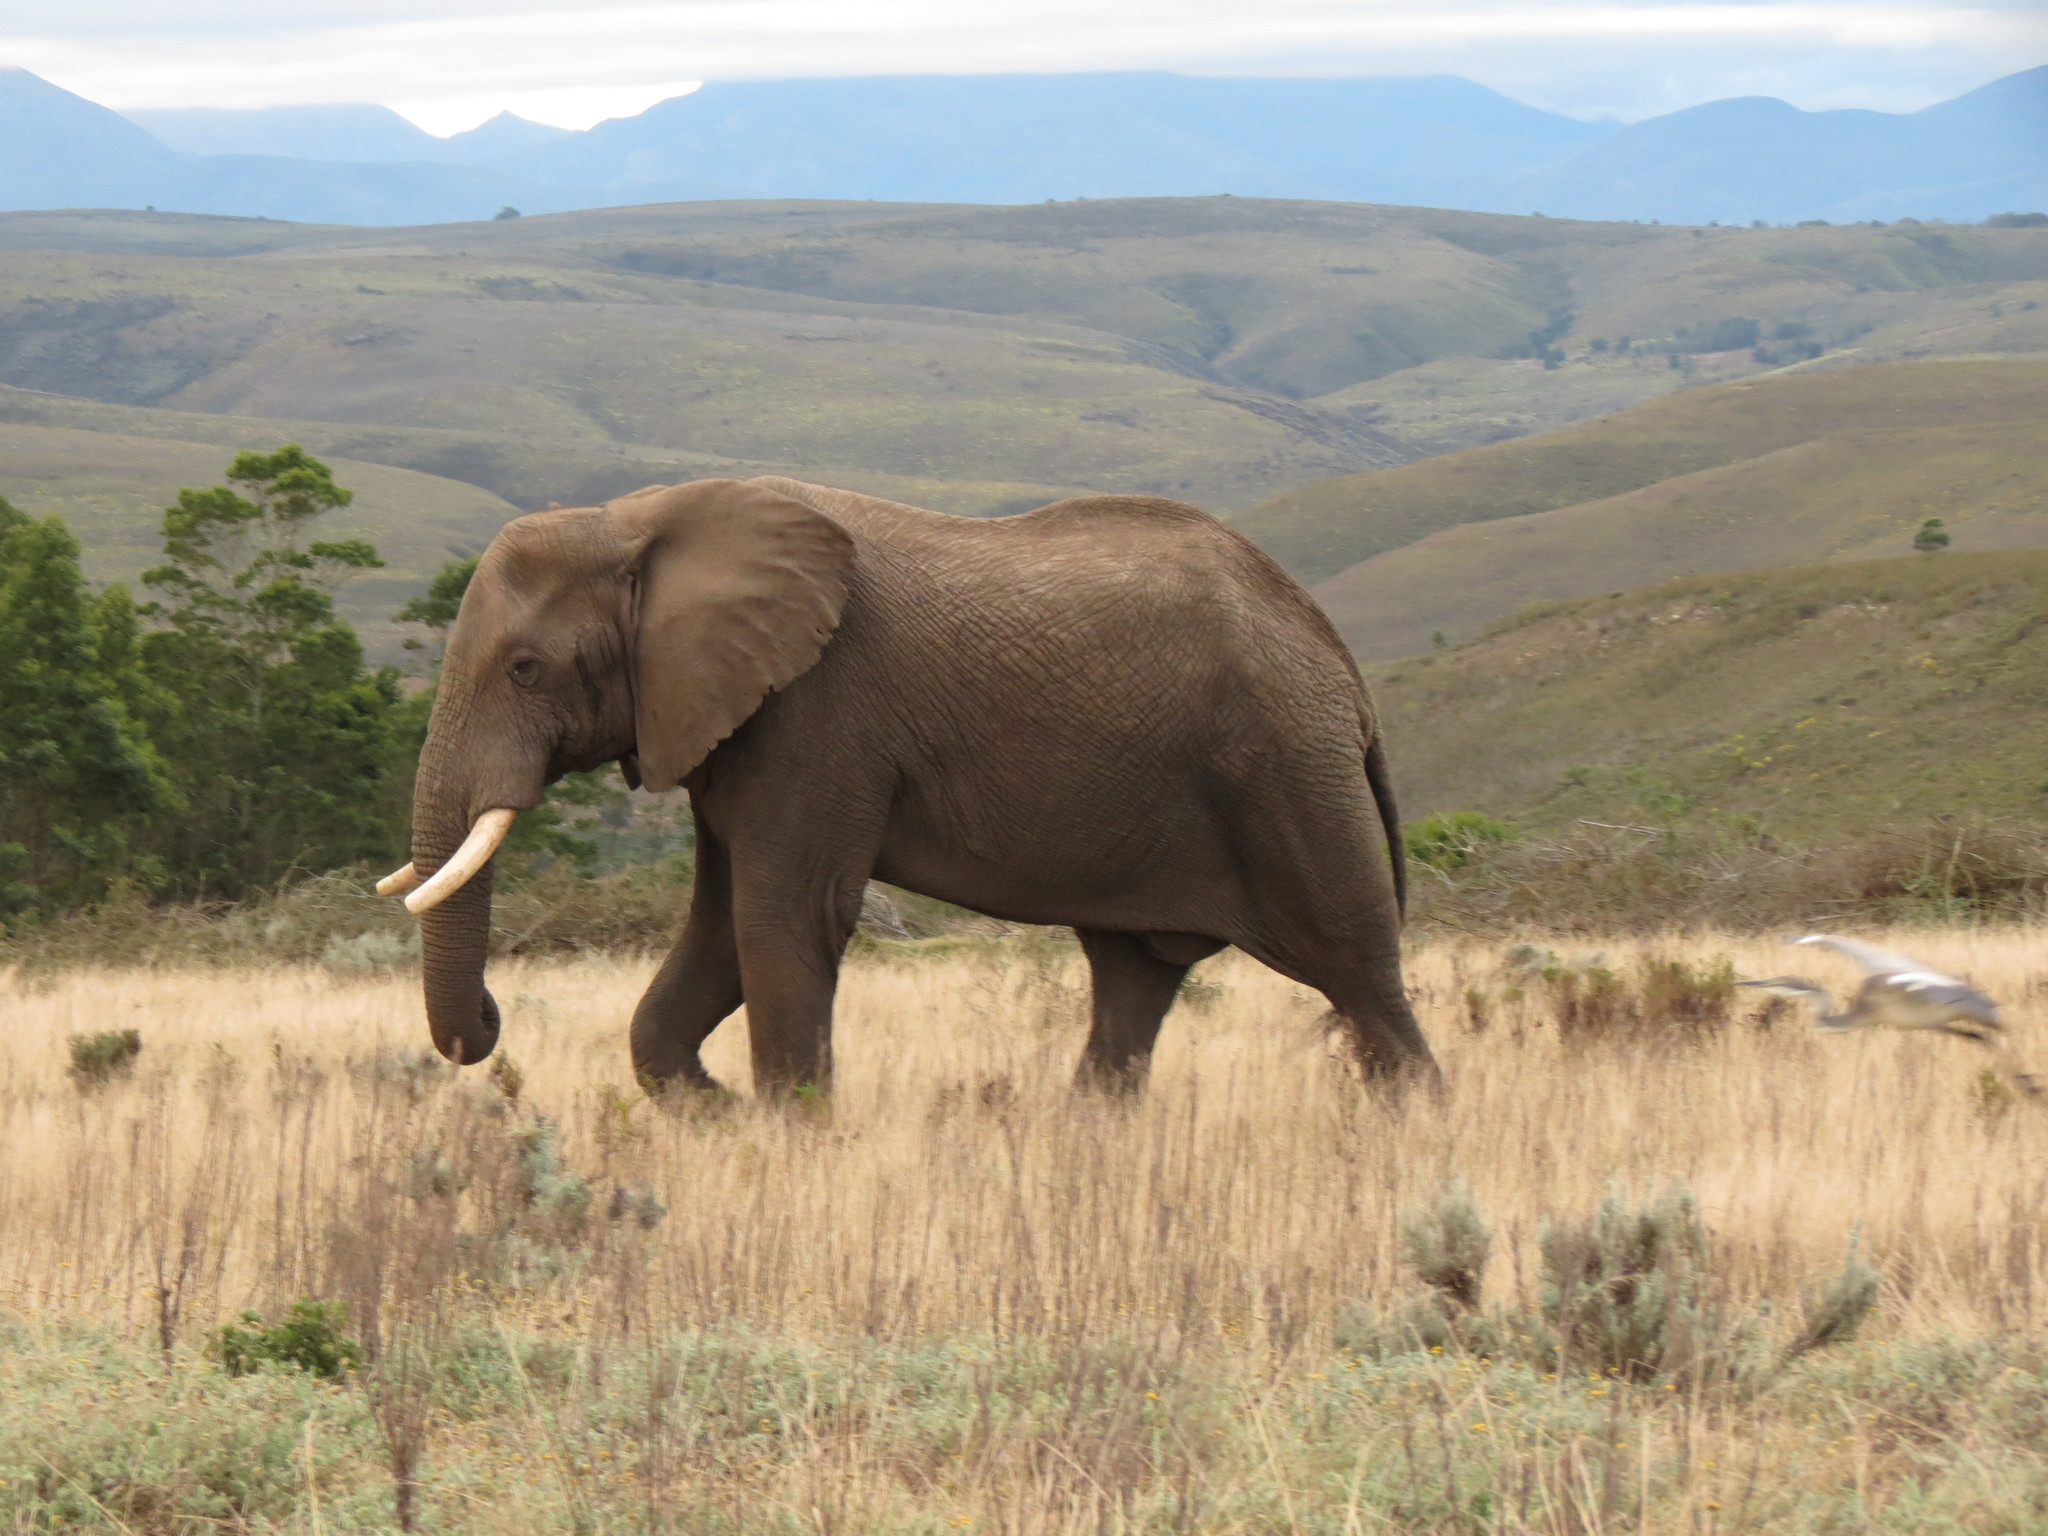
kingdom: Animalia
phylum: Chordata
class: Mammalia
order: Proboscidea
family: Elephantidae
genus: Loxodonta
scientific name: Loxodonta africana
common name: African elephant
